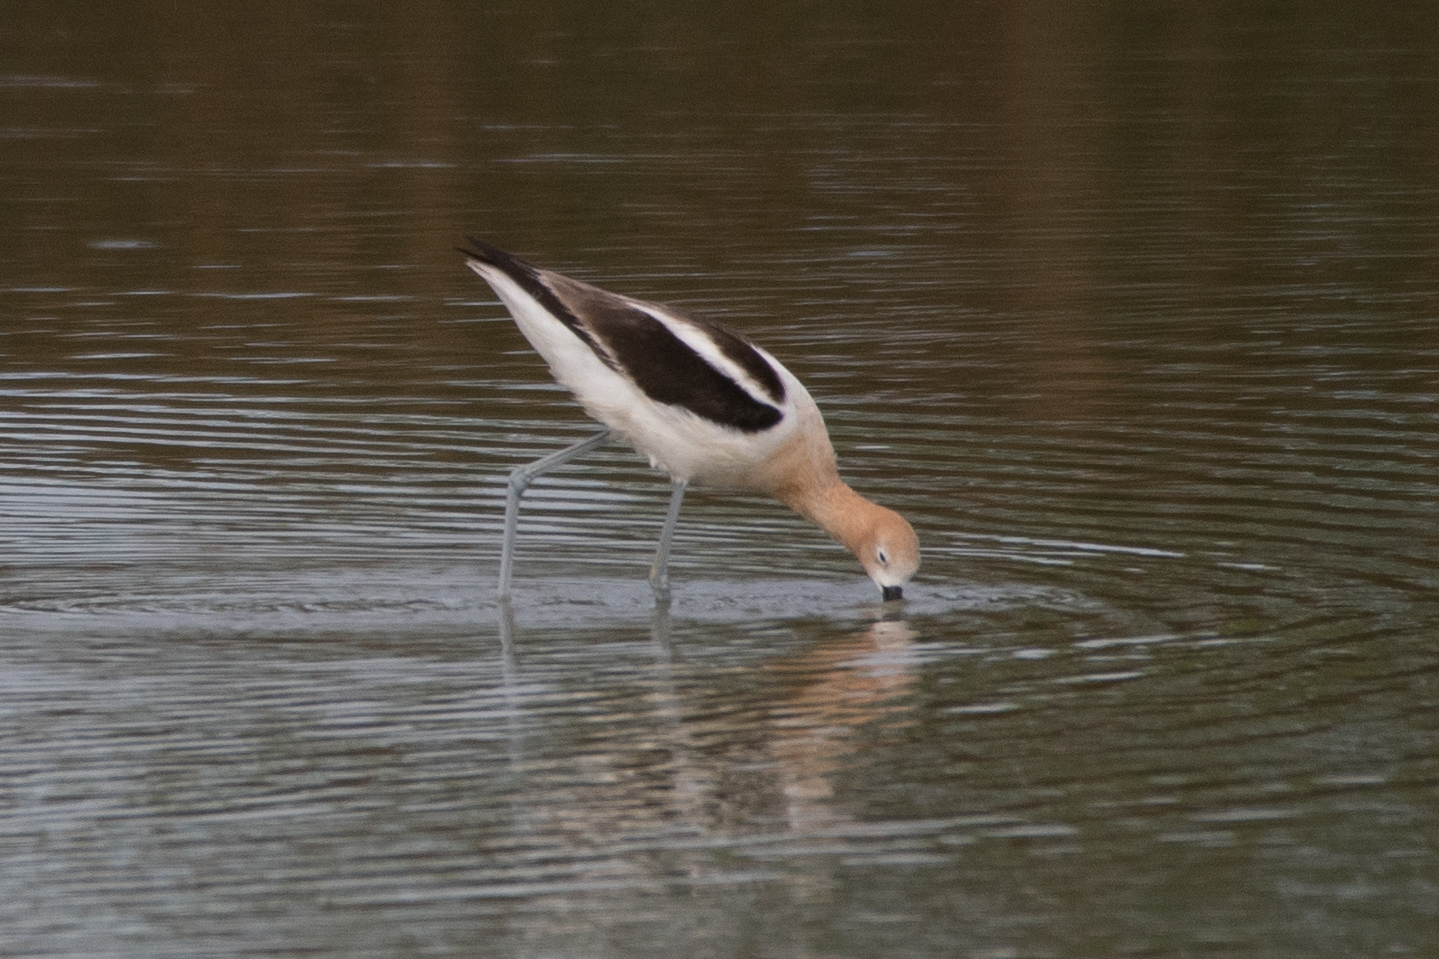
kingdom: Animalia
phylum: Chordata
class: Aves
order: Charadriiformes
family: Recurvirostridae
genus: Recurvirostra
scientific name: Recurvirostra americana
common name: American avocet
